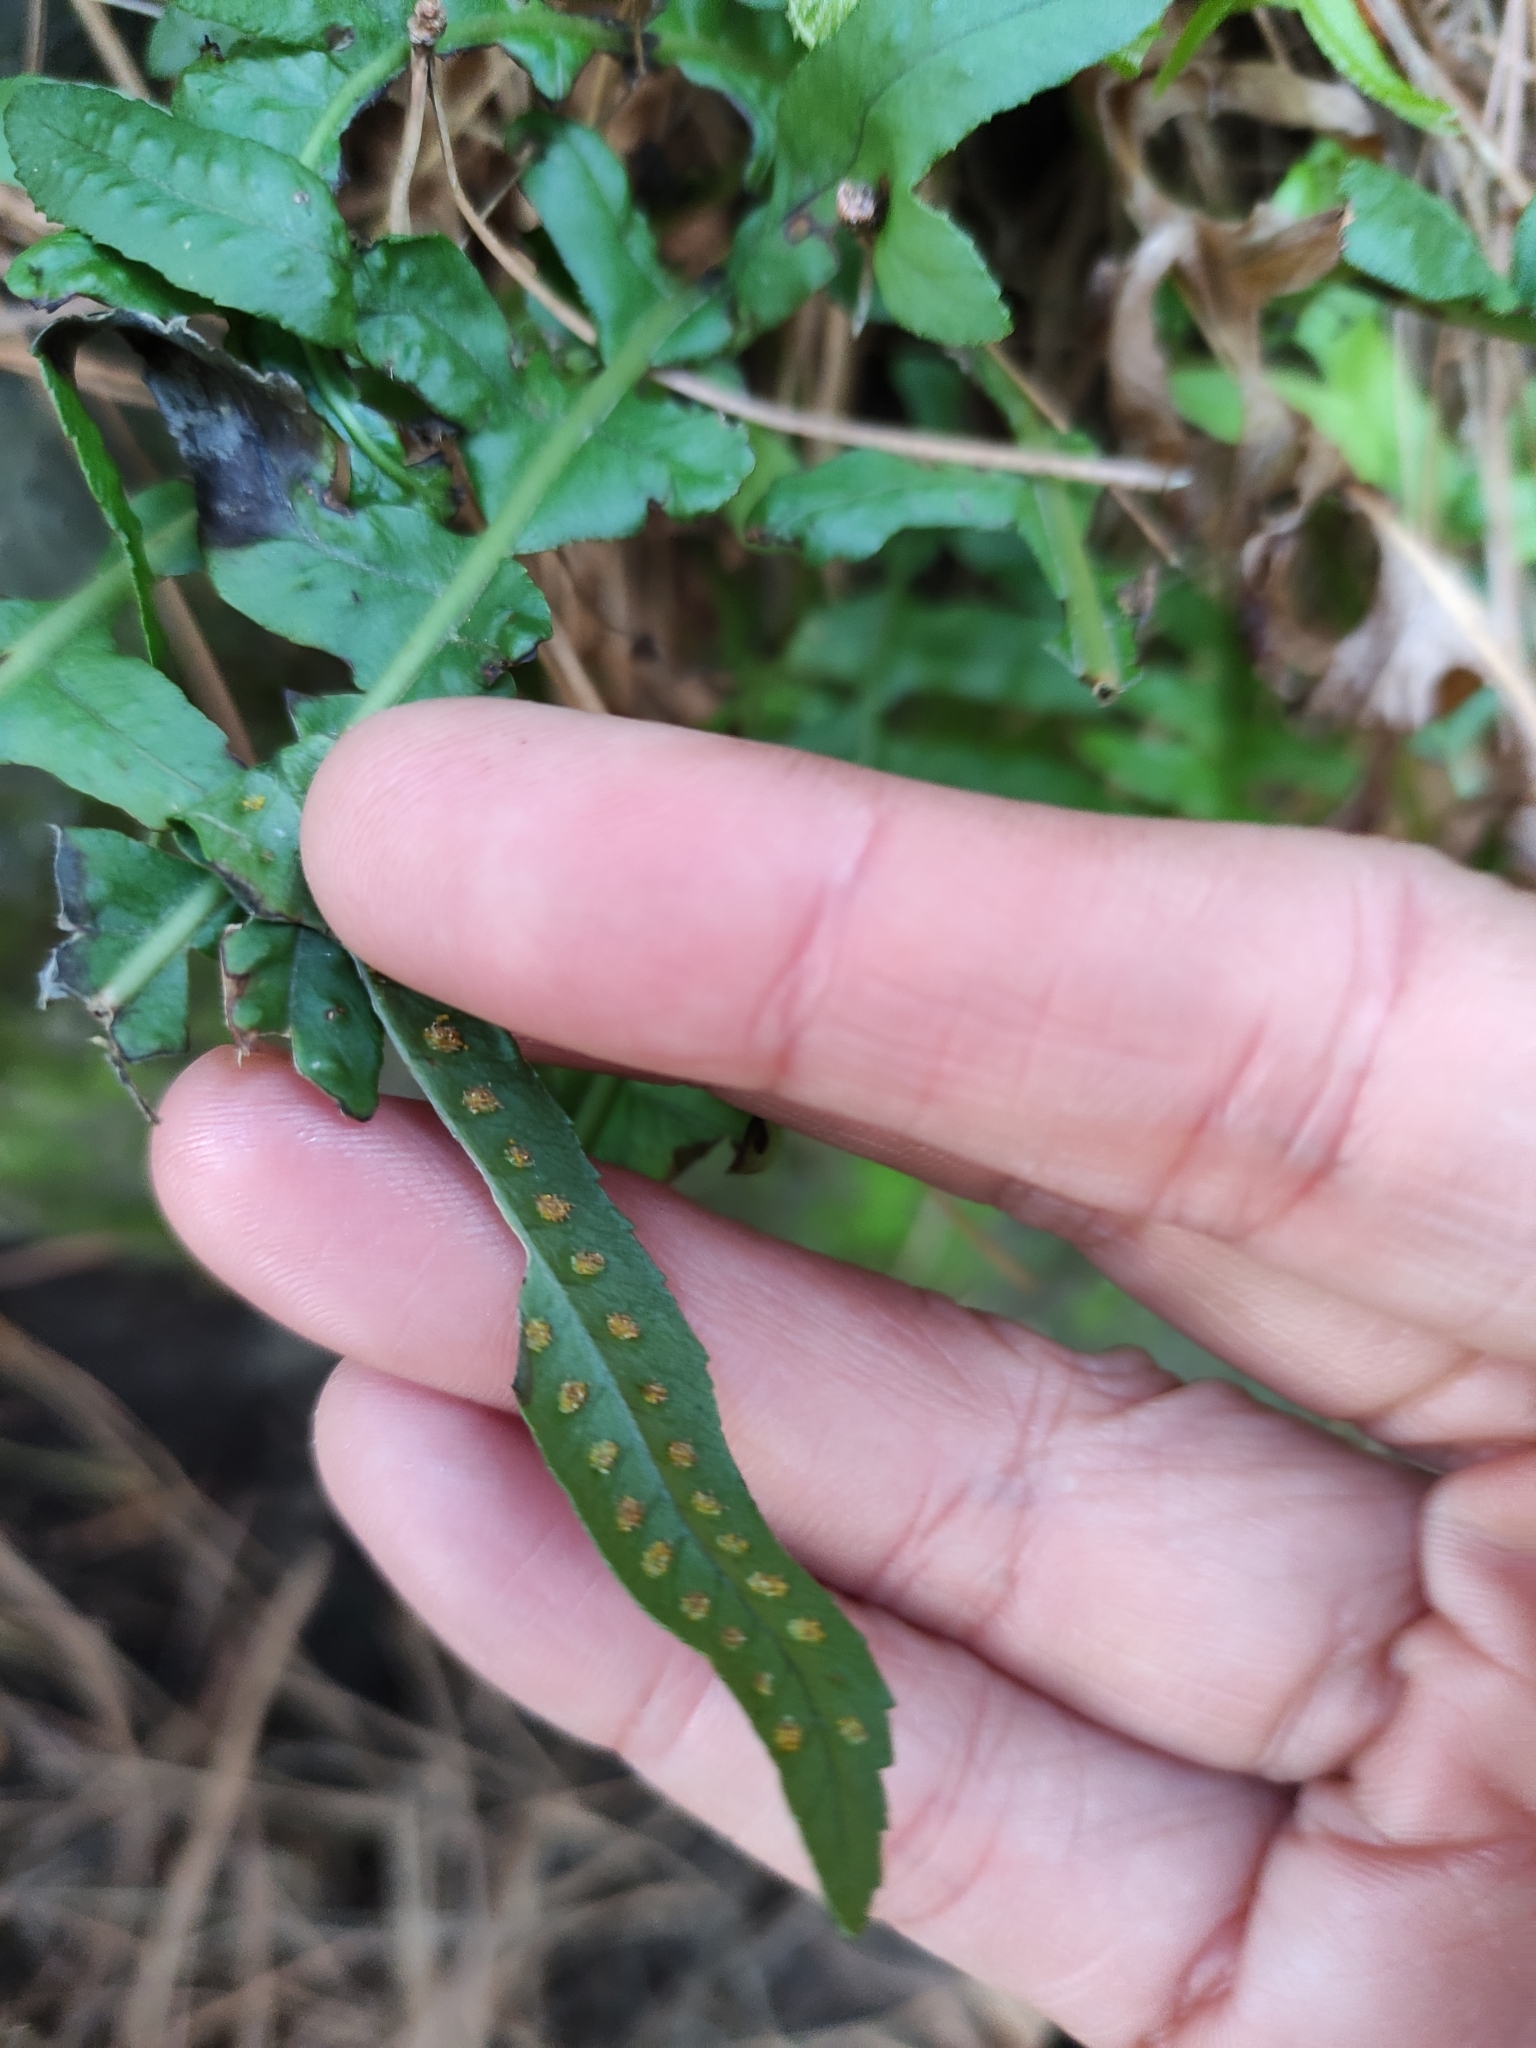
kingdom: Plantae
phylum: Tracheophyta
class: Polypodiopsida
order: Polypodiales
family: Polypodiaceae
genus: Polypodium
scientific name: Polypodium vulgare
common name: Common polypody
